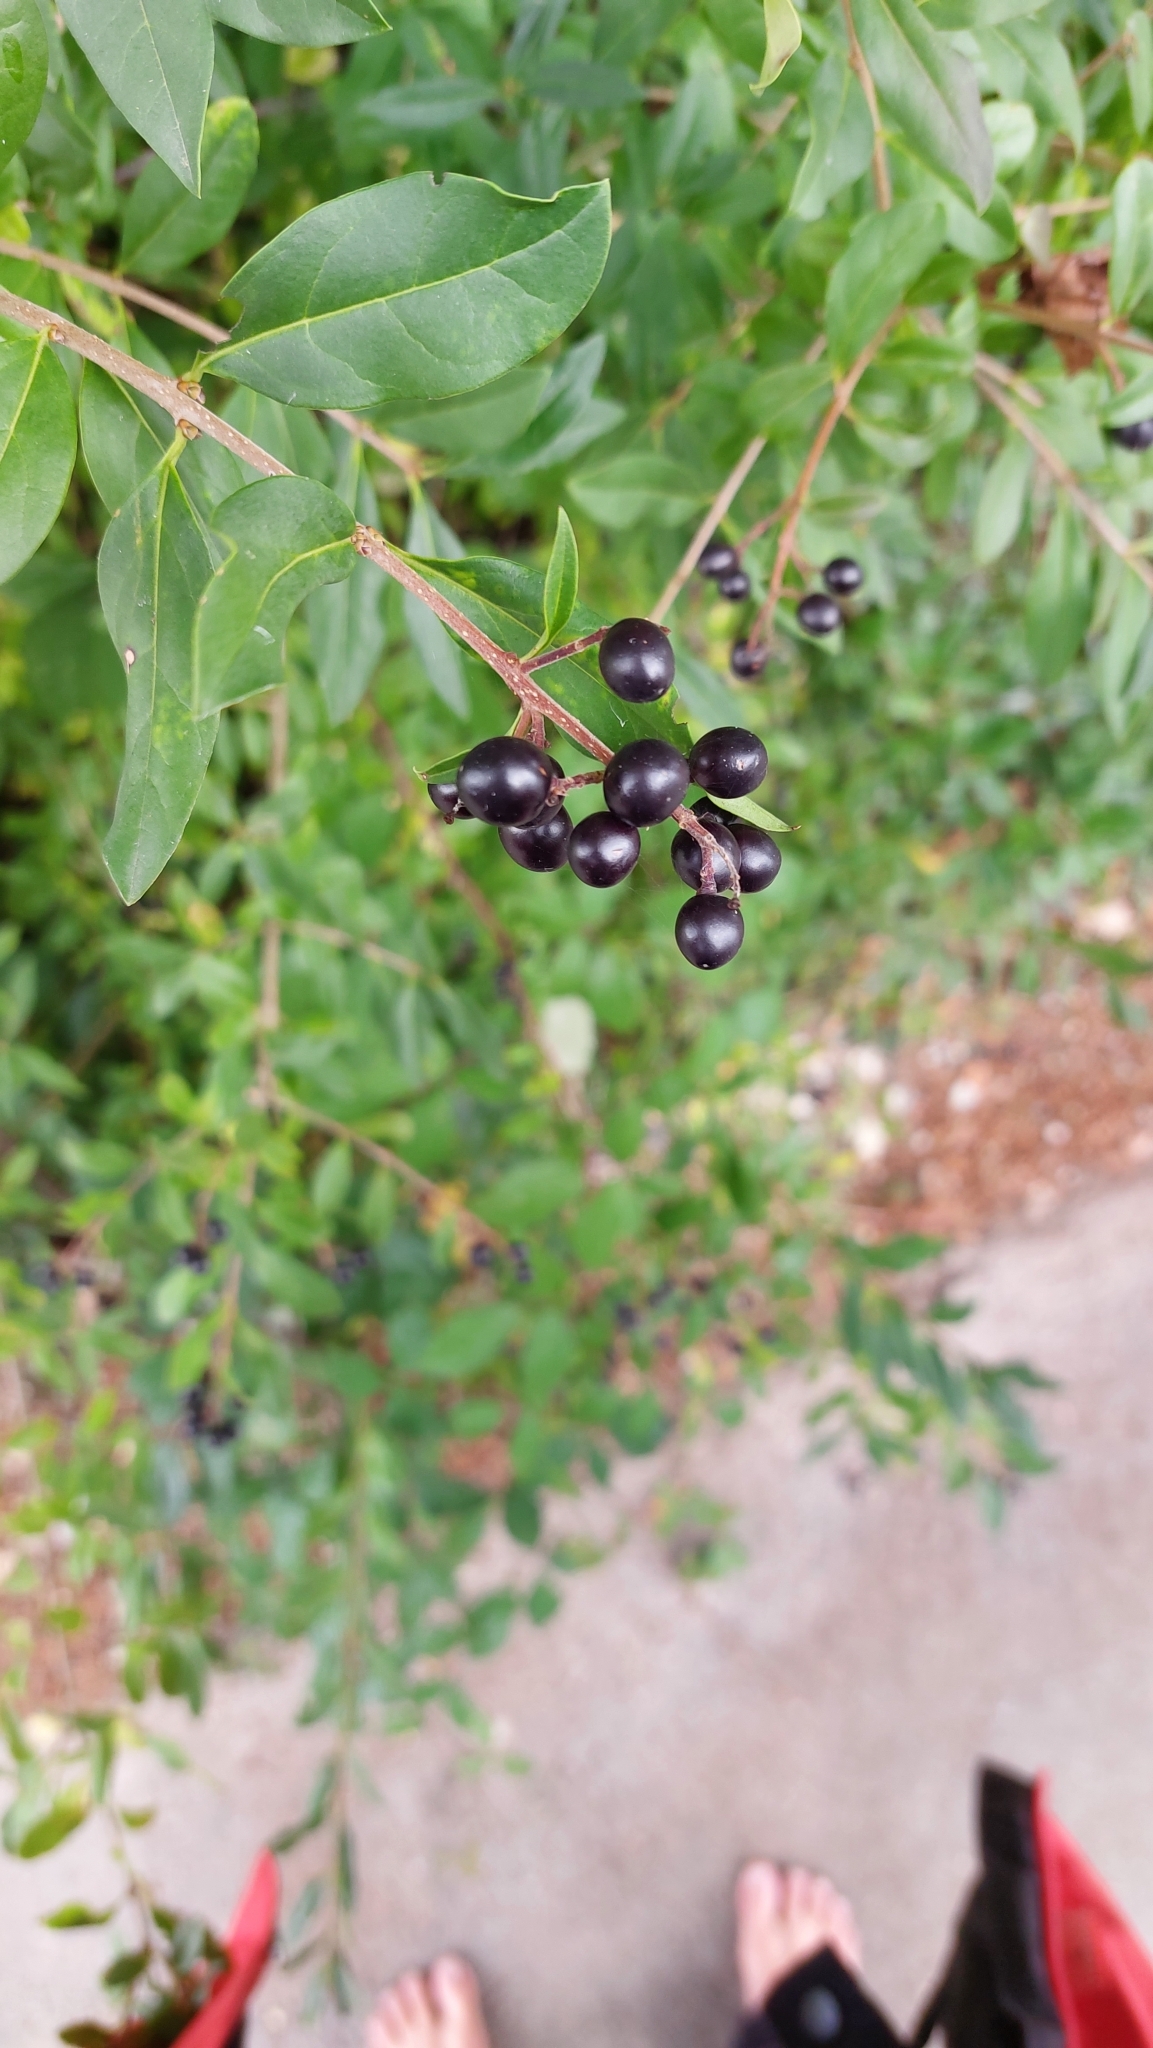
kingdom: Plantae
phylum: Tracheophyta
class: Magnoliopsida
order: Lamiales
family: Oleaceae
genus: Ligustrum
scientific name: Ligustrum vulgare
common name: Wild privet
